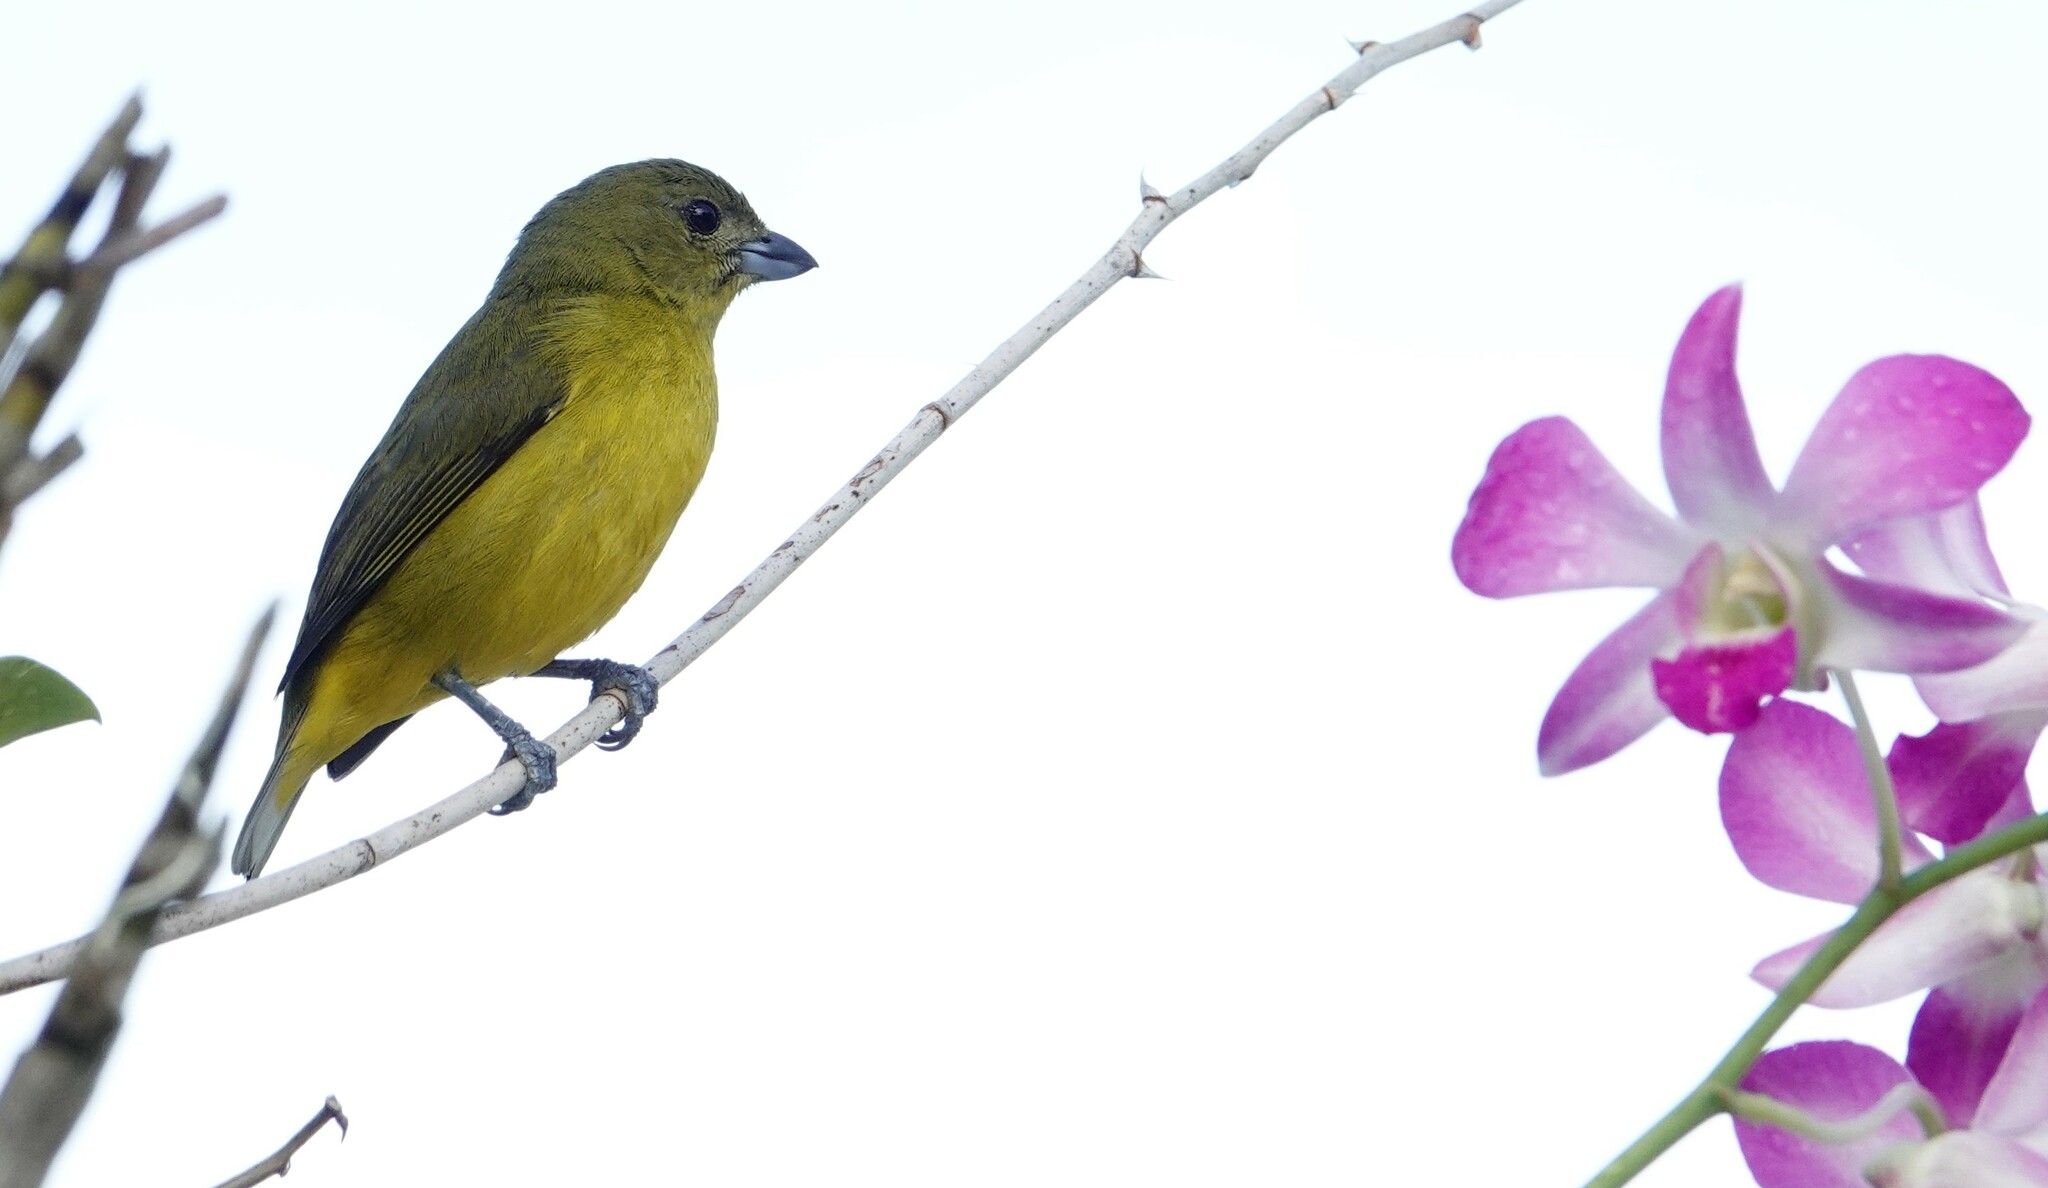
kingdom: Animalia
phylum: Chordata
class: Aves
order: Passeriformes
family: Fringillidae
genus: Euphonia
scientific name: Euphonia laniirostris
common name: Thick-billed euphonia
